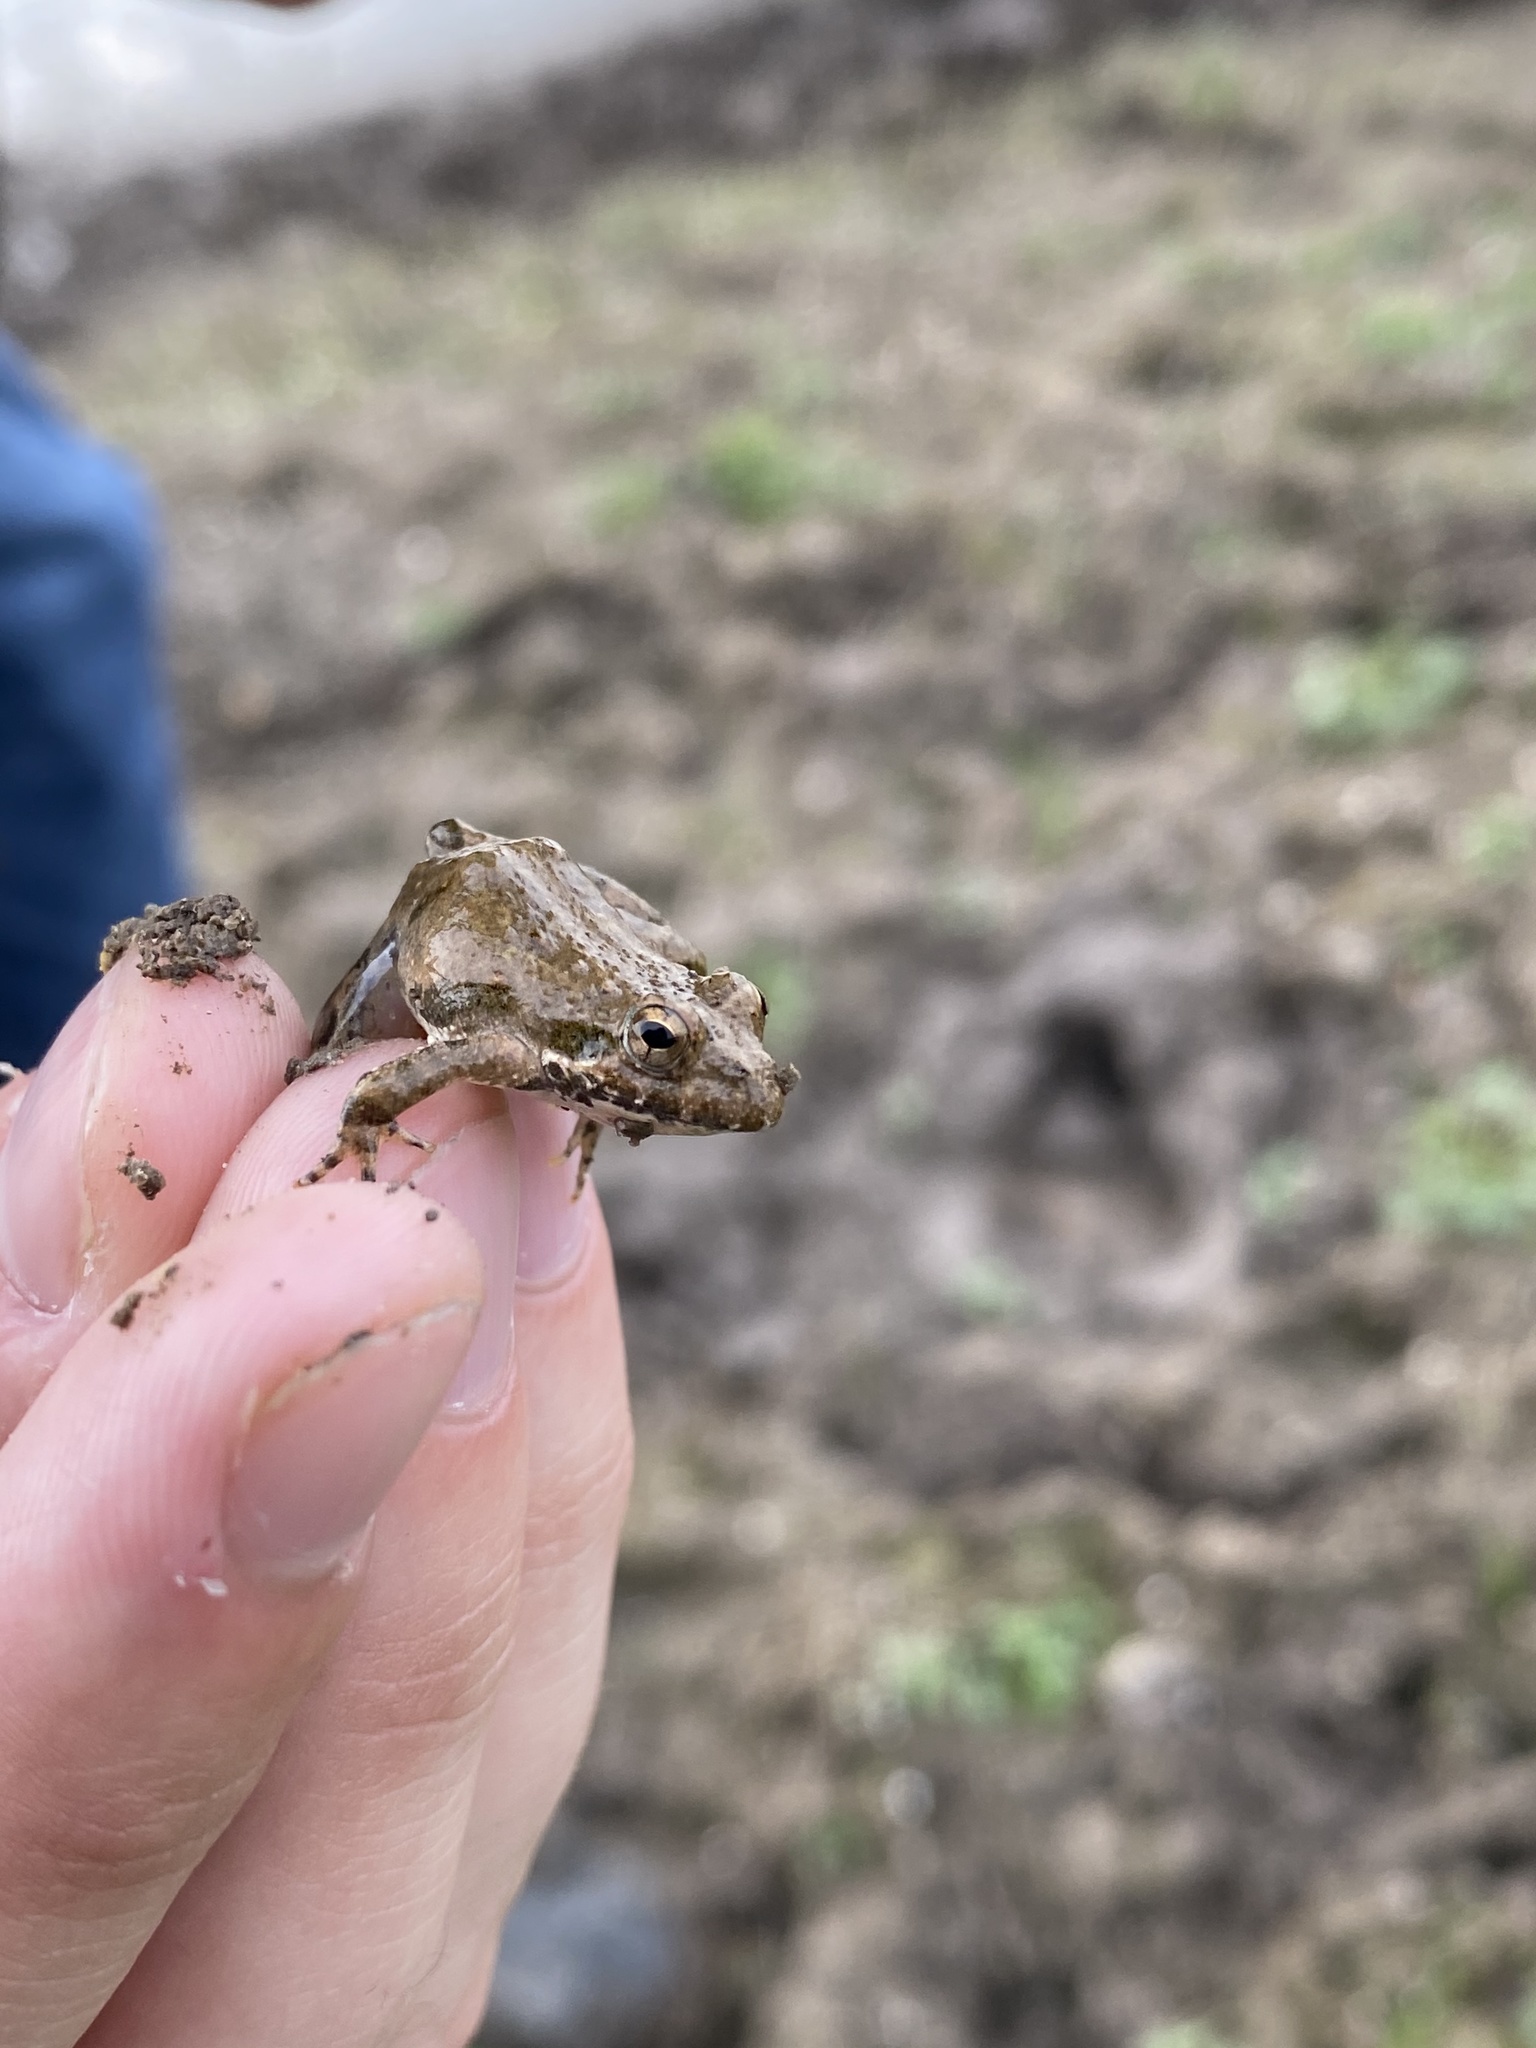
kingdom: Animalia
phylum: Chordata
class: Amphibia
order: Anura
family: Hylidae
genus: Acris
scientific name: Acris blanchardi
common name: Blanchard's cricket frog
